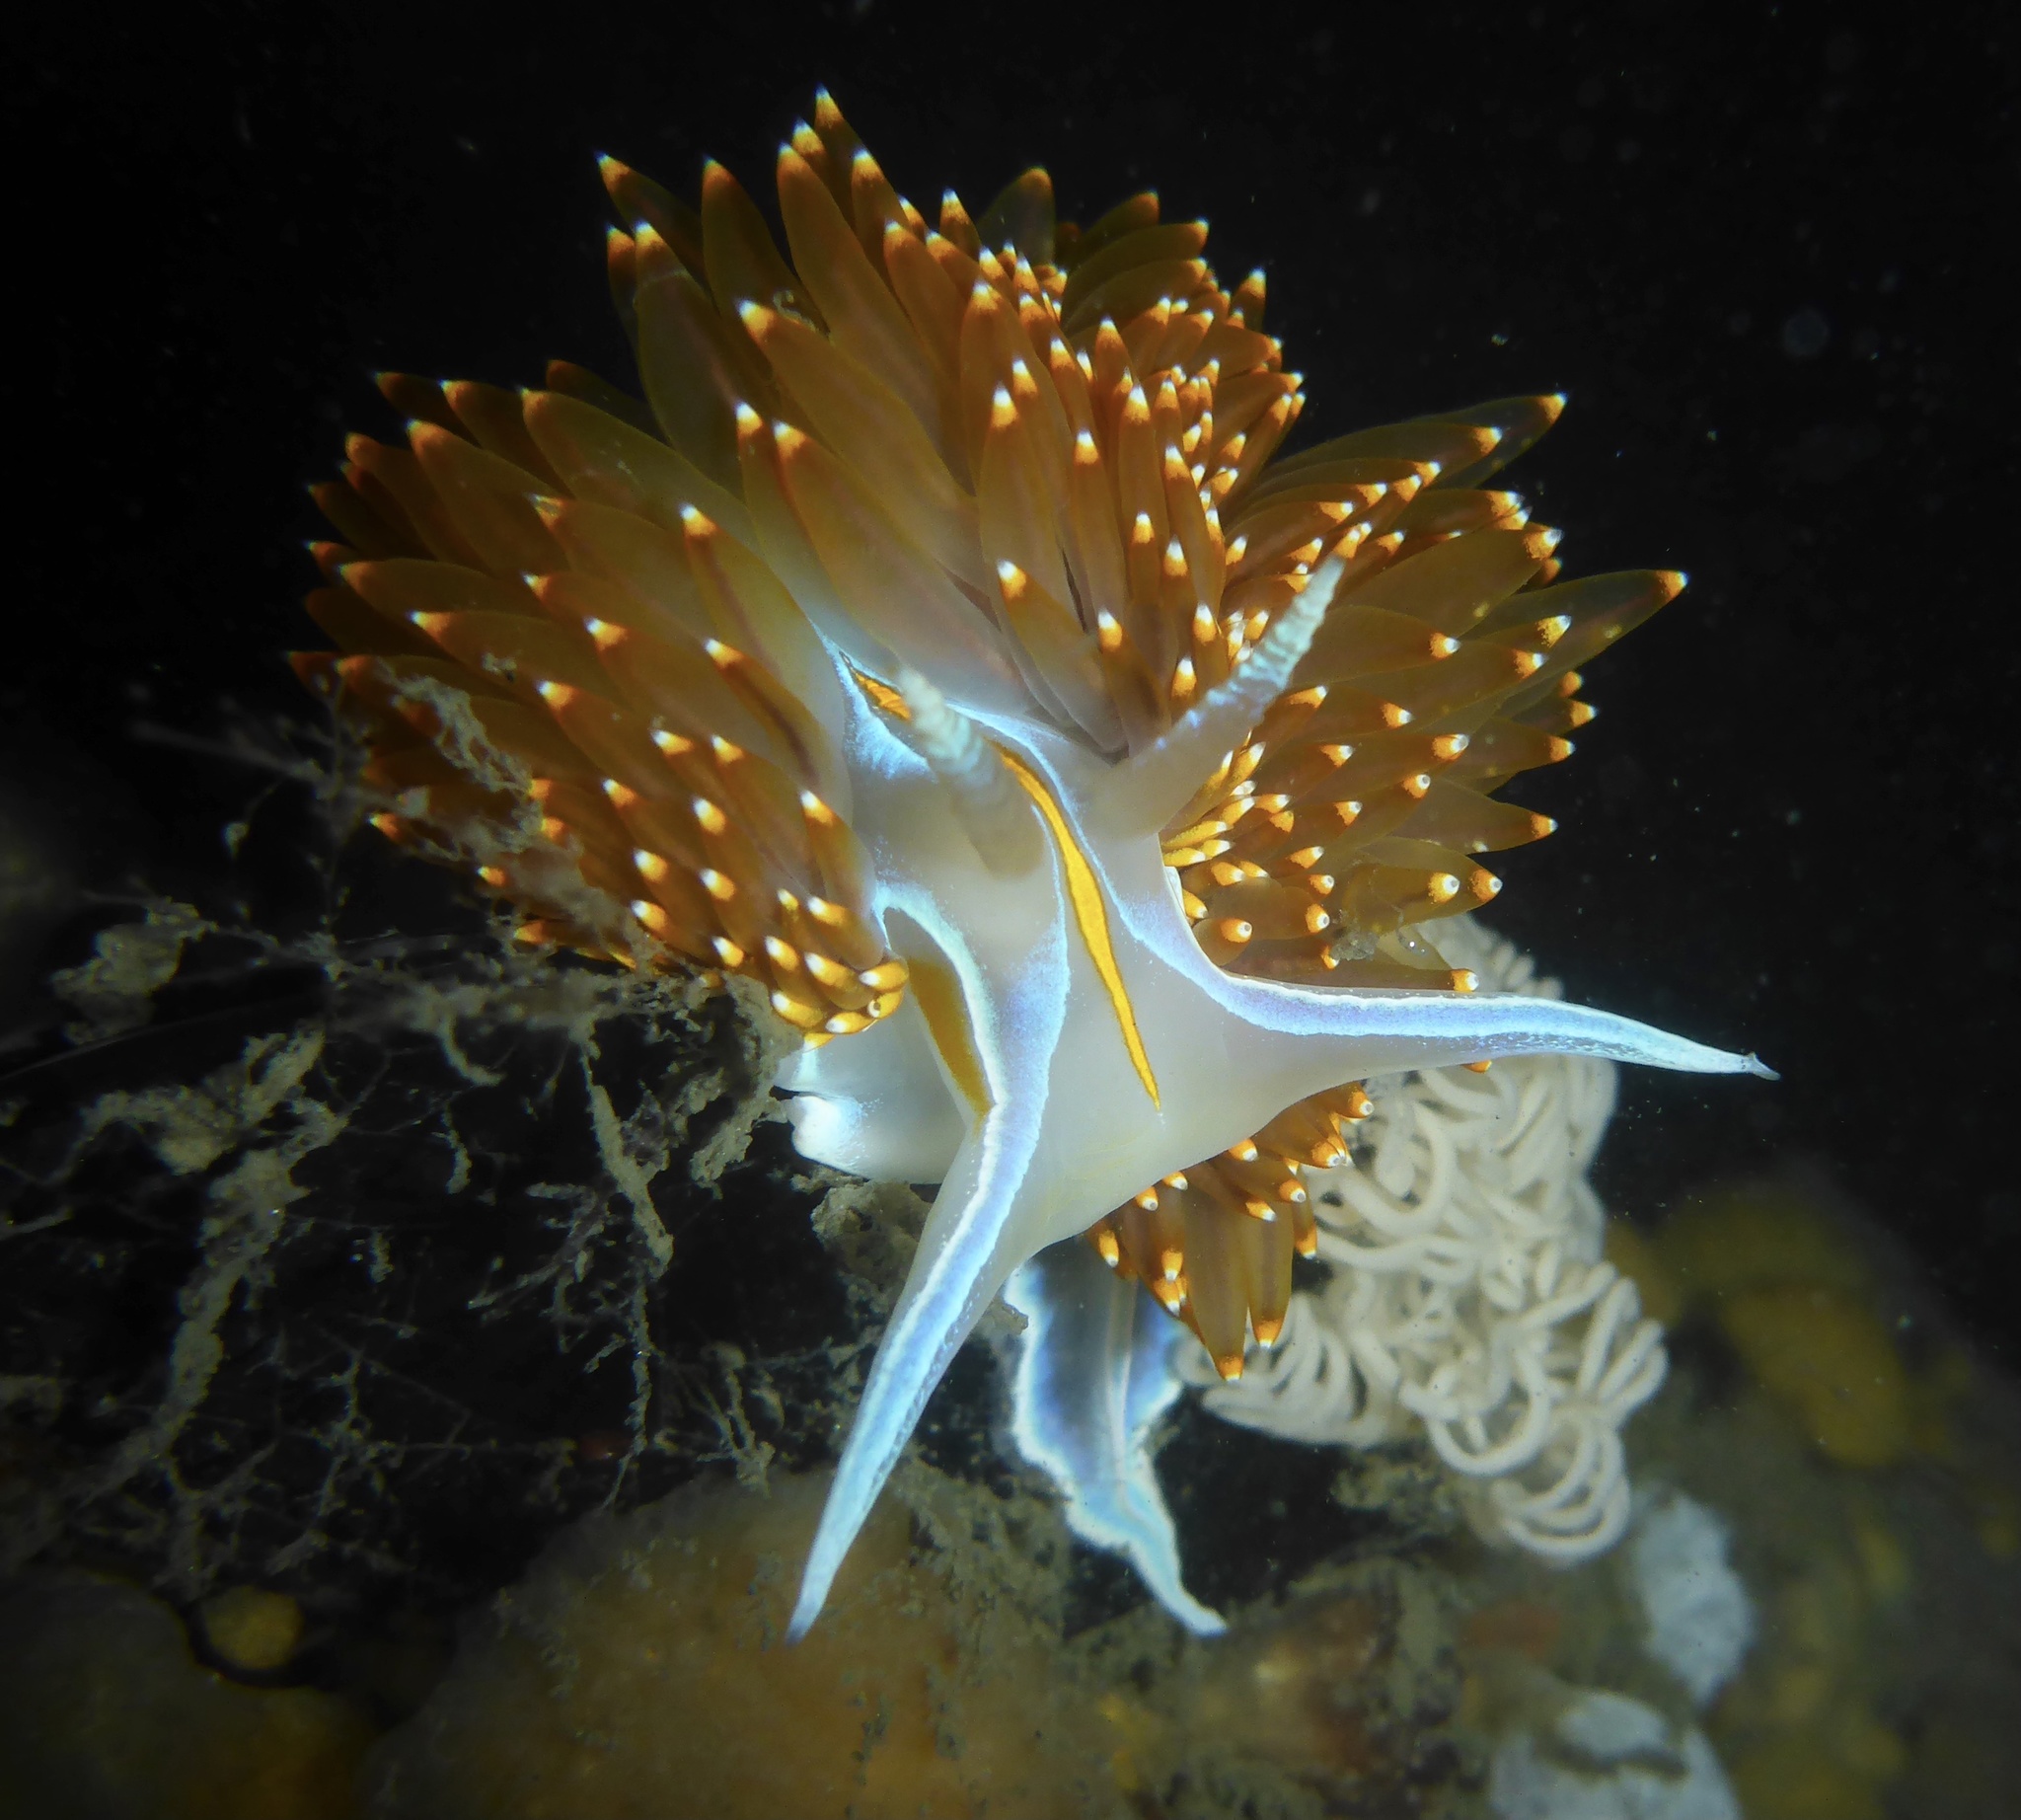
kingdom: Animalia
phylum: Mollusca
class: Gastropoda
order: Nudibranchia
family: Myrrhinidae
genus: Hermissenda
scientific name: Hermissenda opalescens
